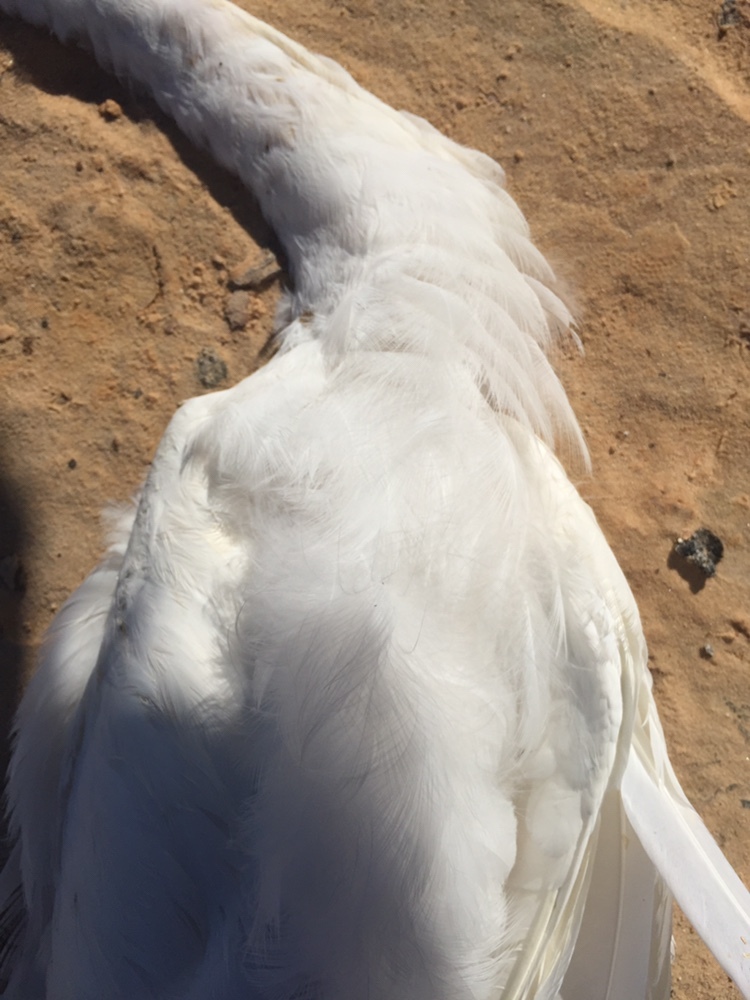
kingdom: Animalia
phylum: Chordata
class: Aves
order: Pelecaniformes
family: Ardeidae
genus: Ardea
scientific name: Ardea alba
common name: Great egret
